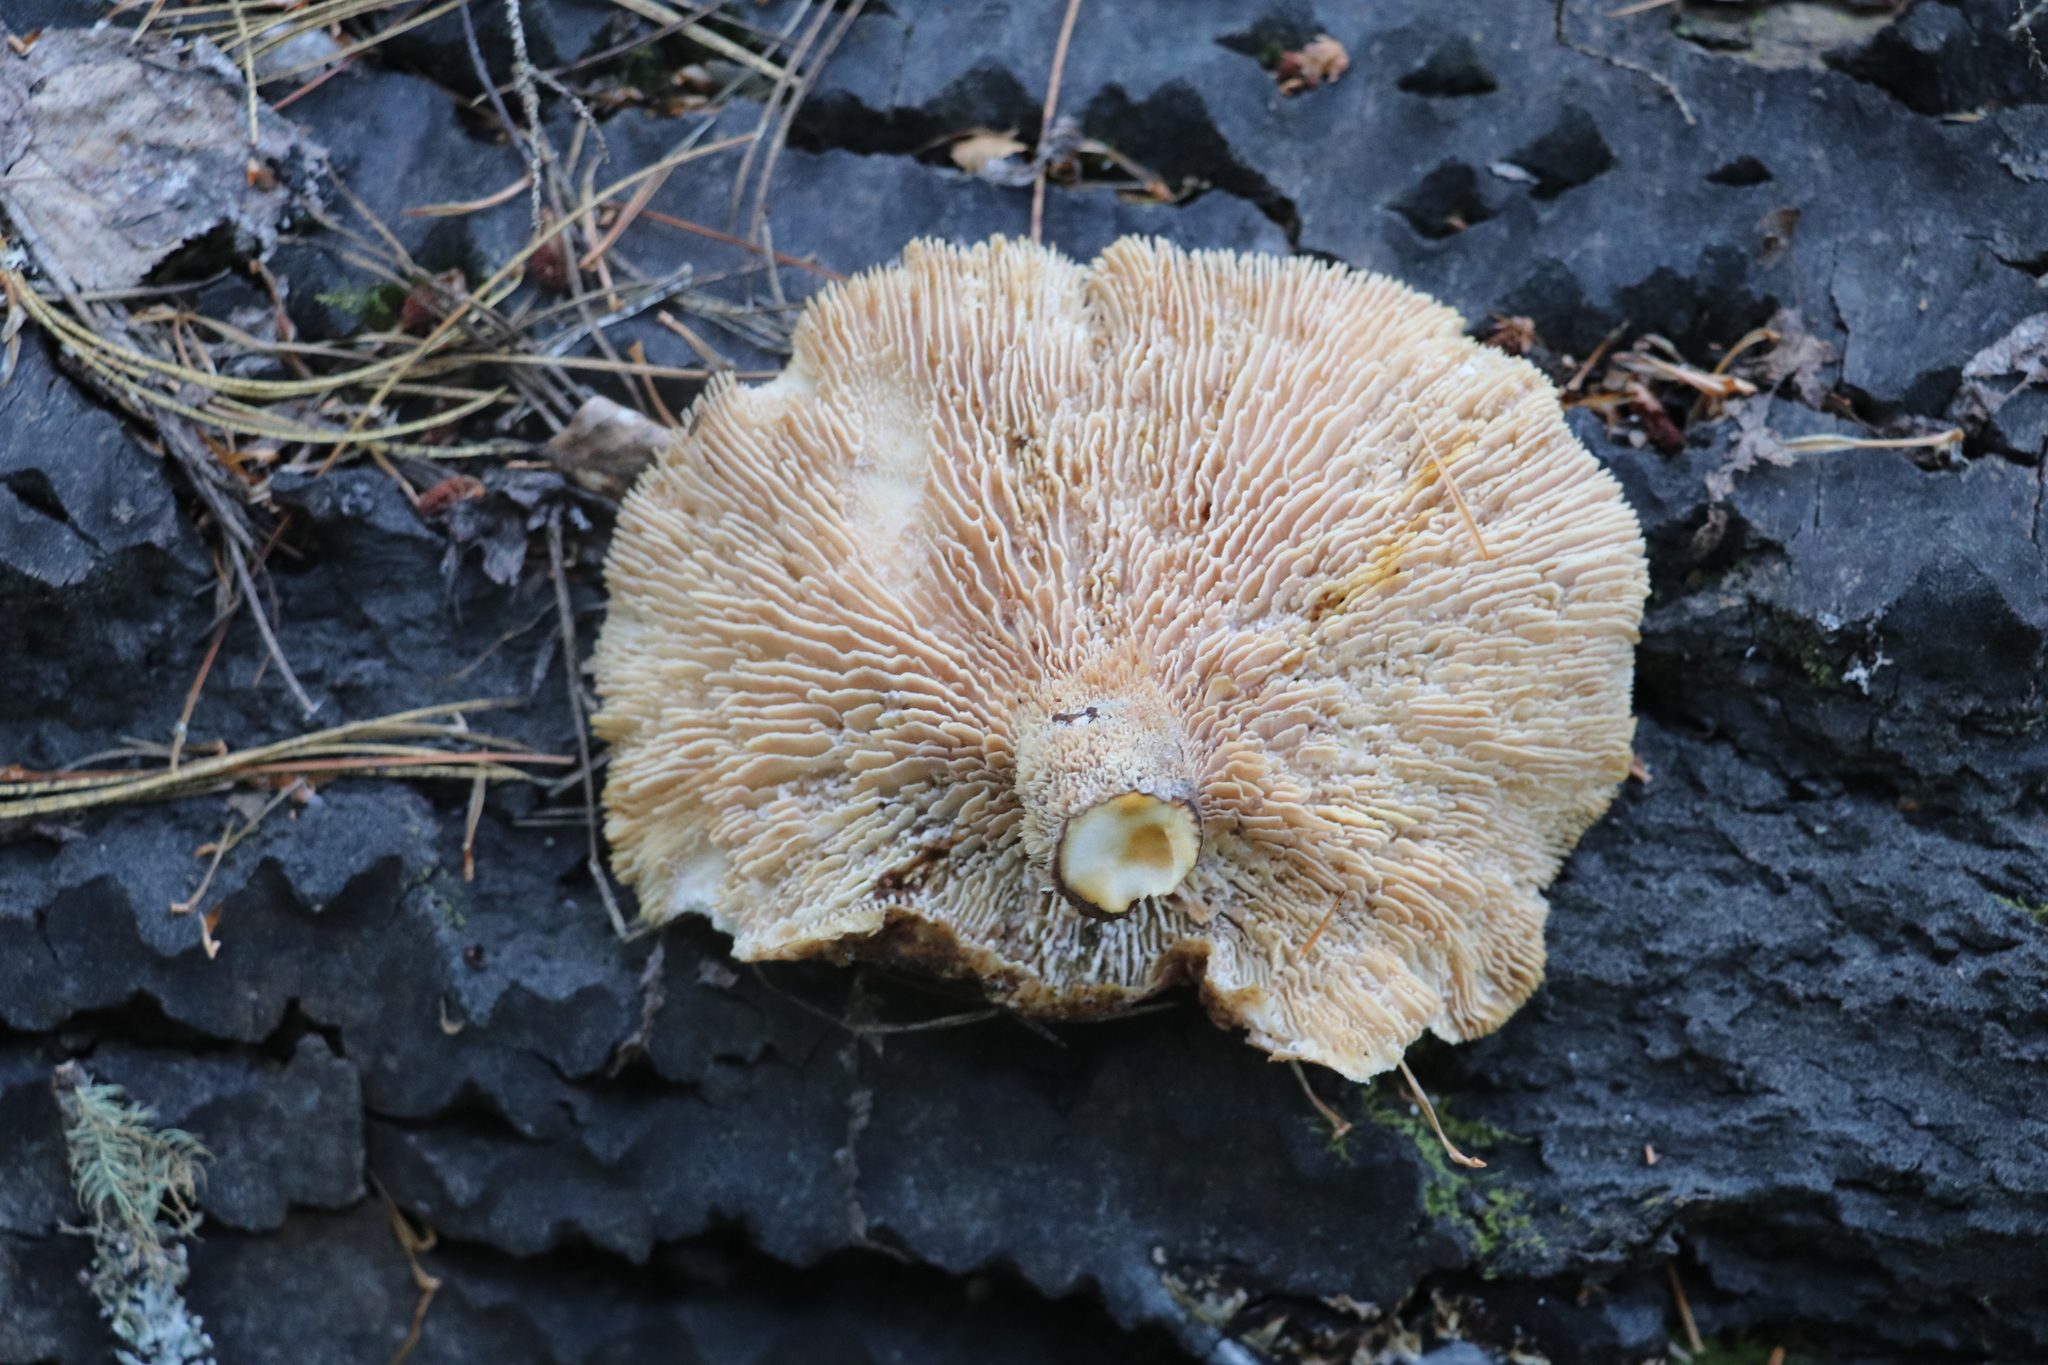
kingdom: Fungi
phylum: Basidiomycota
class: Agaricomycetes
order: Gloeophyllales
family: Gloeophyllaceae
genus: Neolentinus
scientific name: Neolentinus cyathiformis
